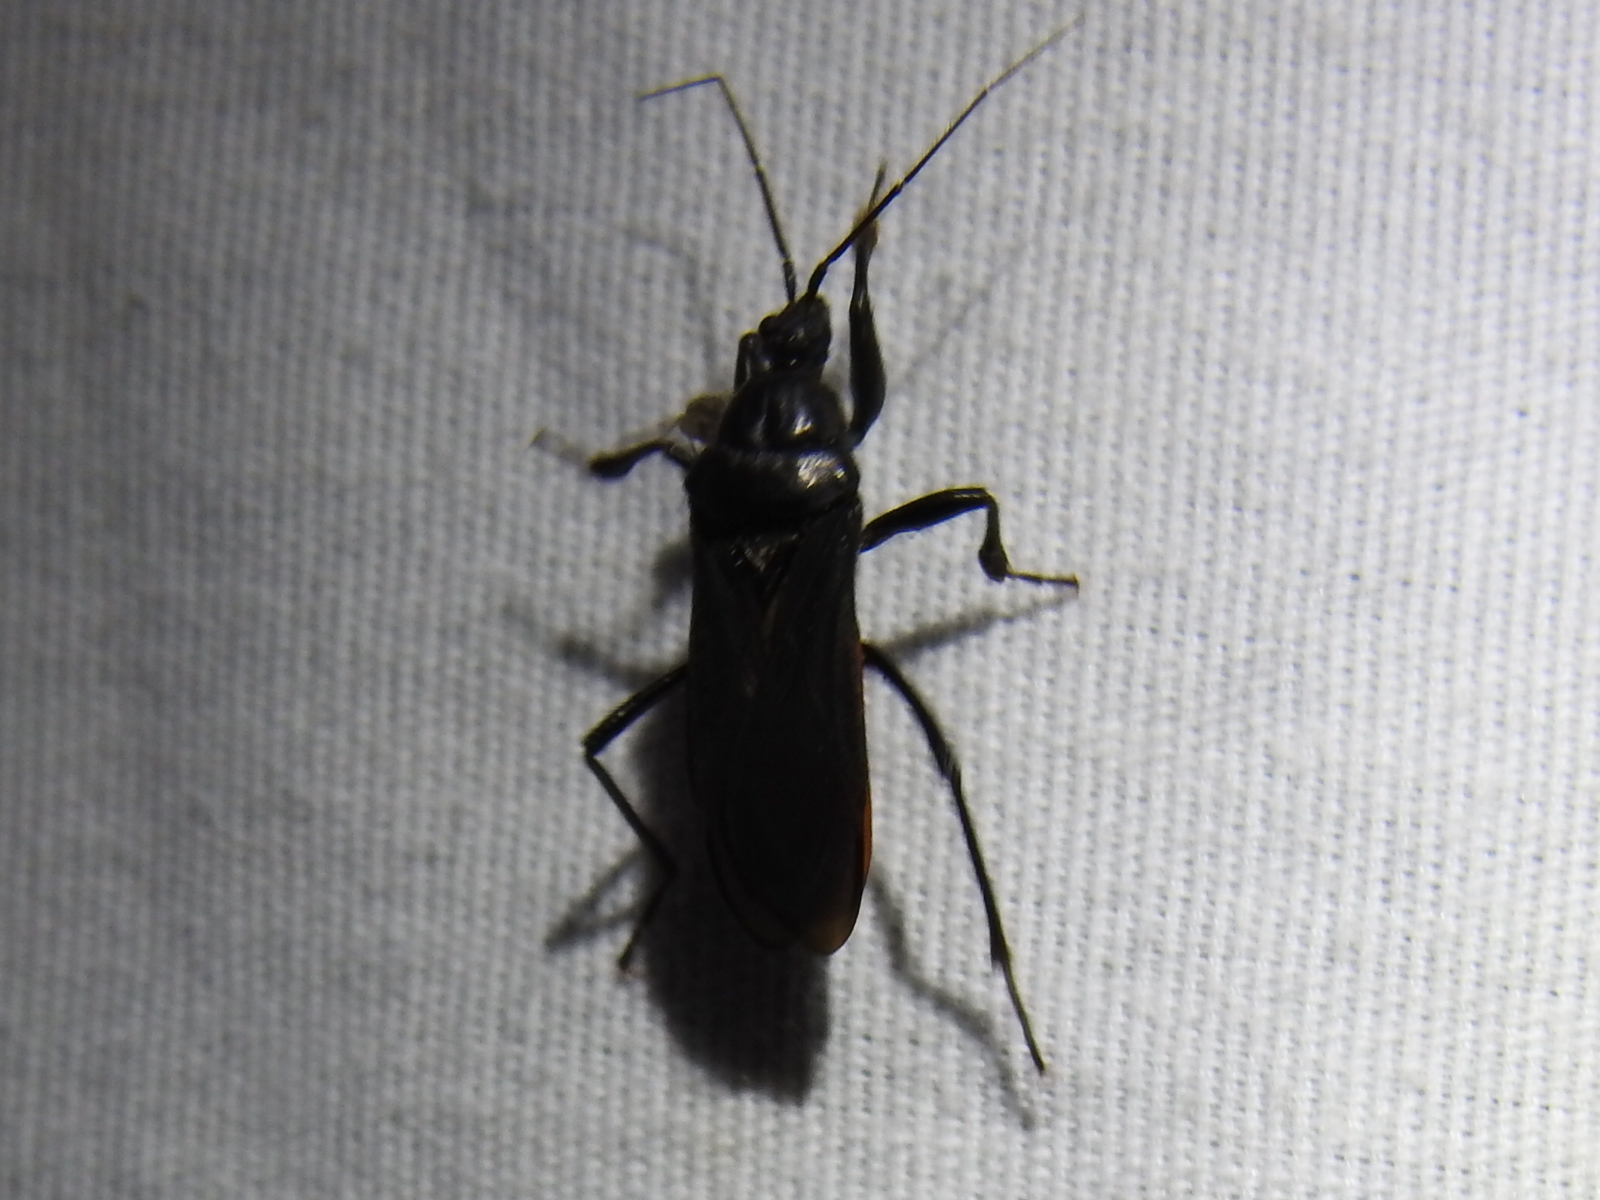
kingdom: Animalia
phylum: Arthropoda
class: Insecta
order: Hemiptera
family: Reduviidae
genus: Melanolestes
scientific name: Melanolestes picipes
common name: Assassin bug
